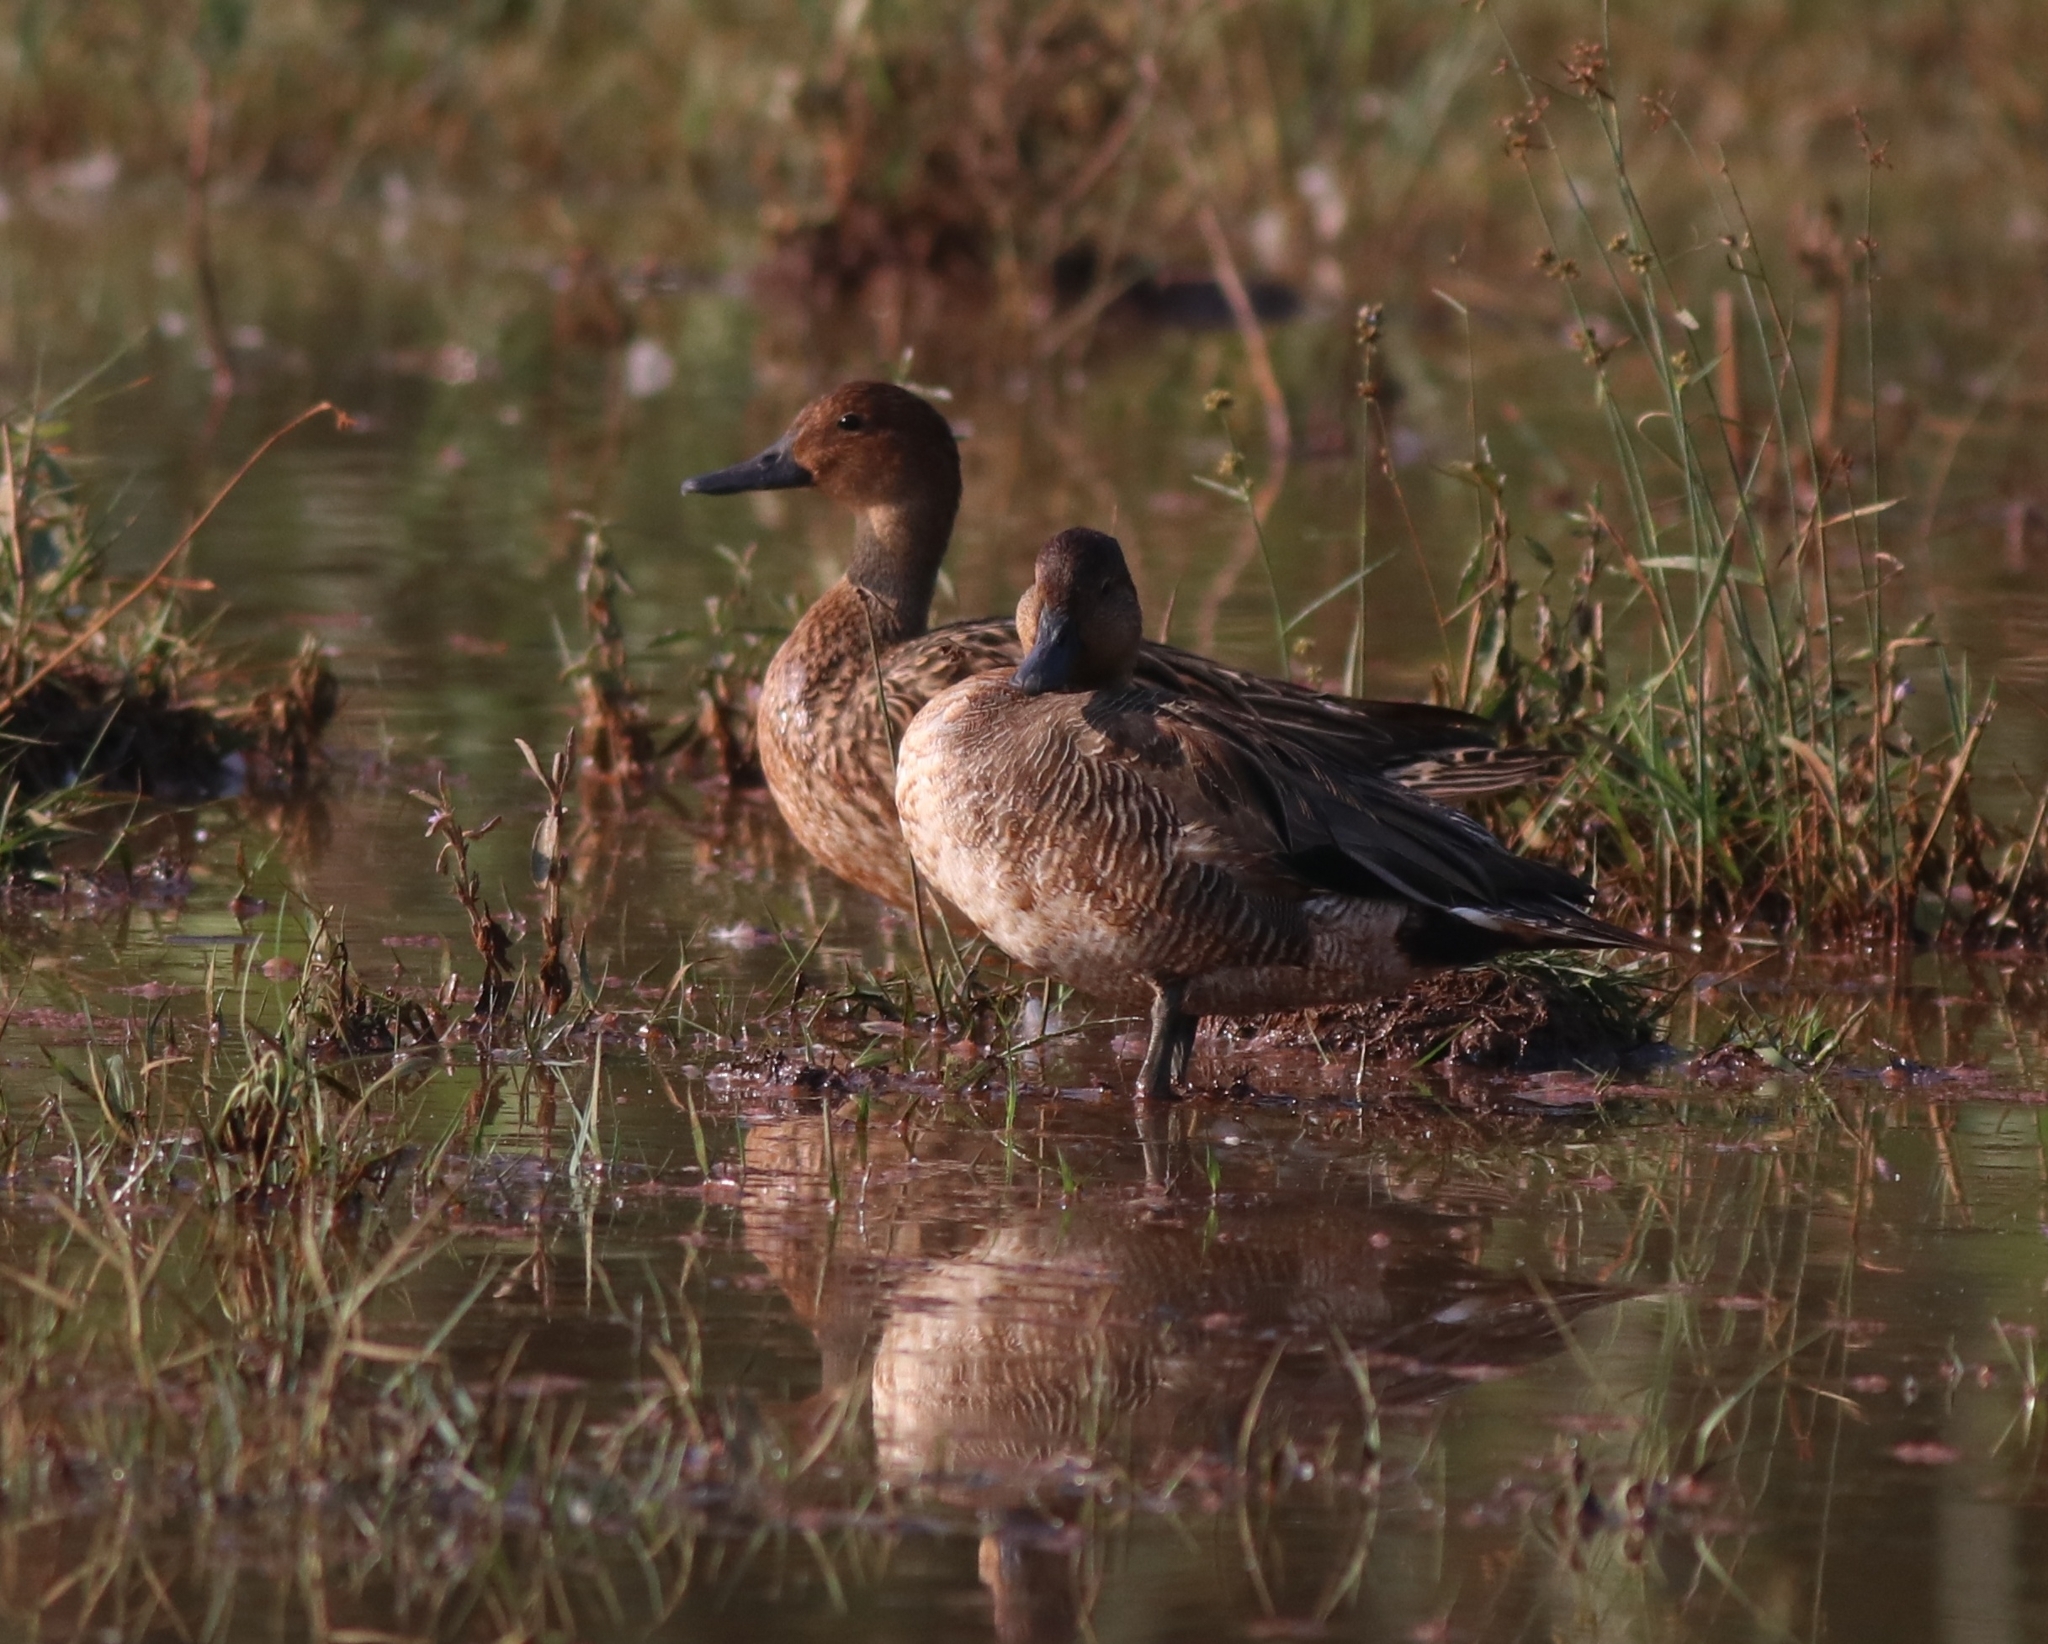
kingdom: Animalia
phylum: Chordata
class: Aves
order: Anseriformes
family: Anatidae
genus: Anas
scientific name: Anas acuta
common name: Northern pintail
